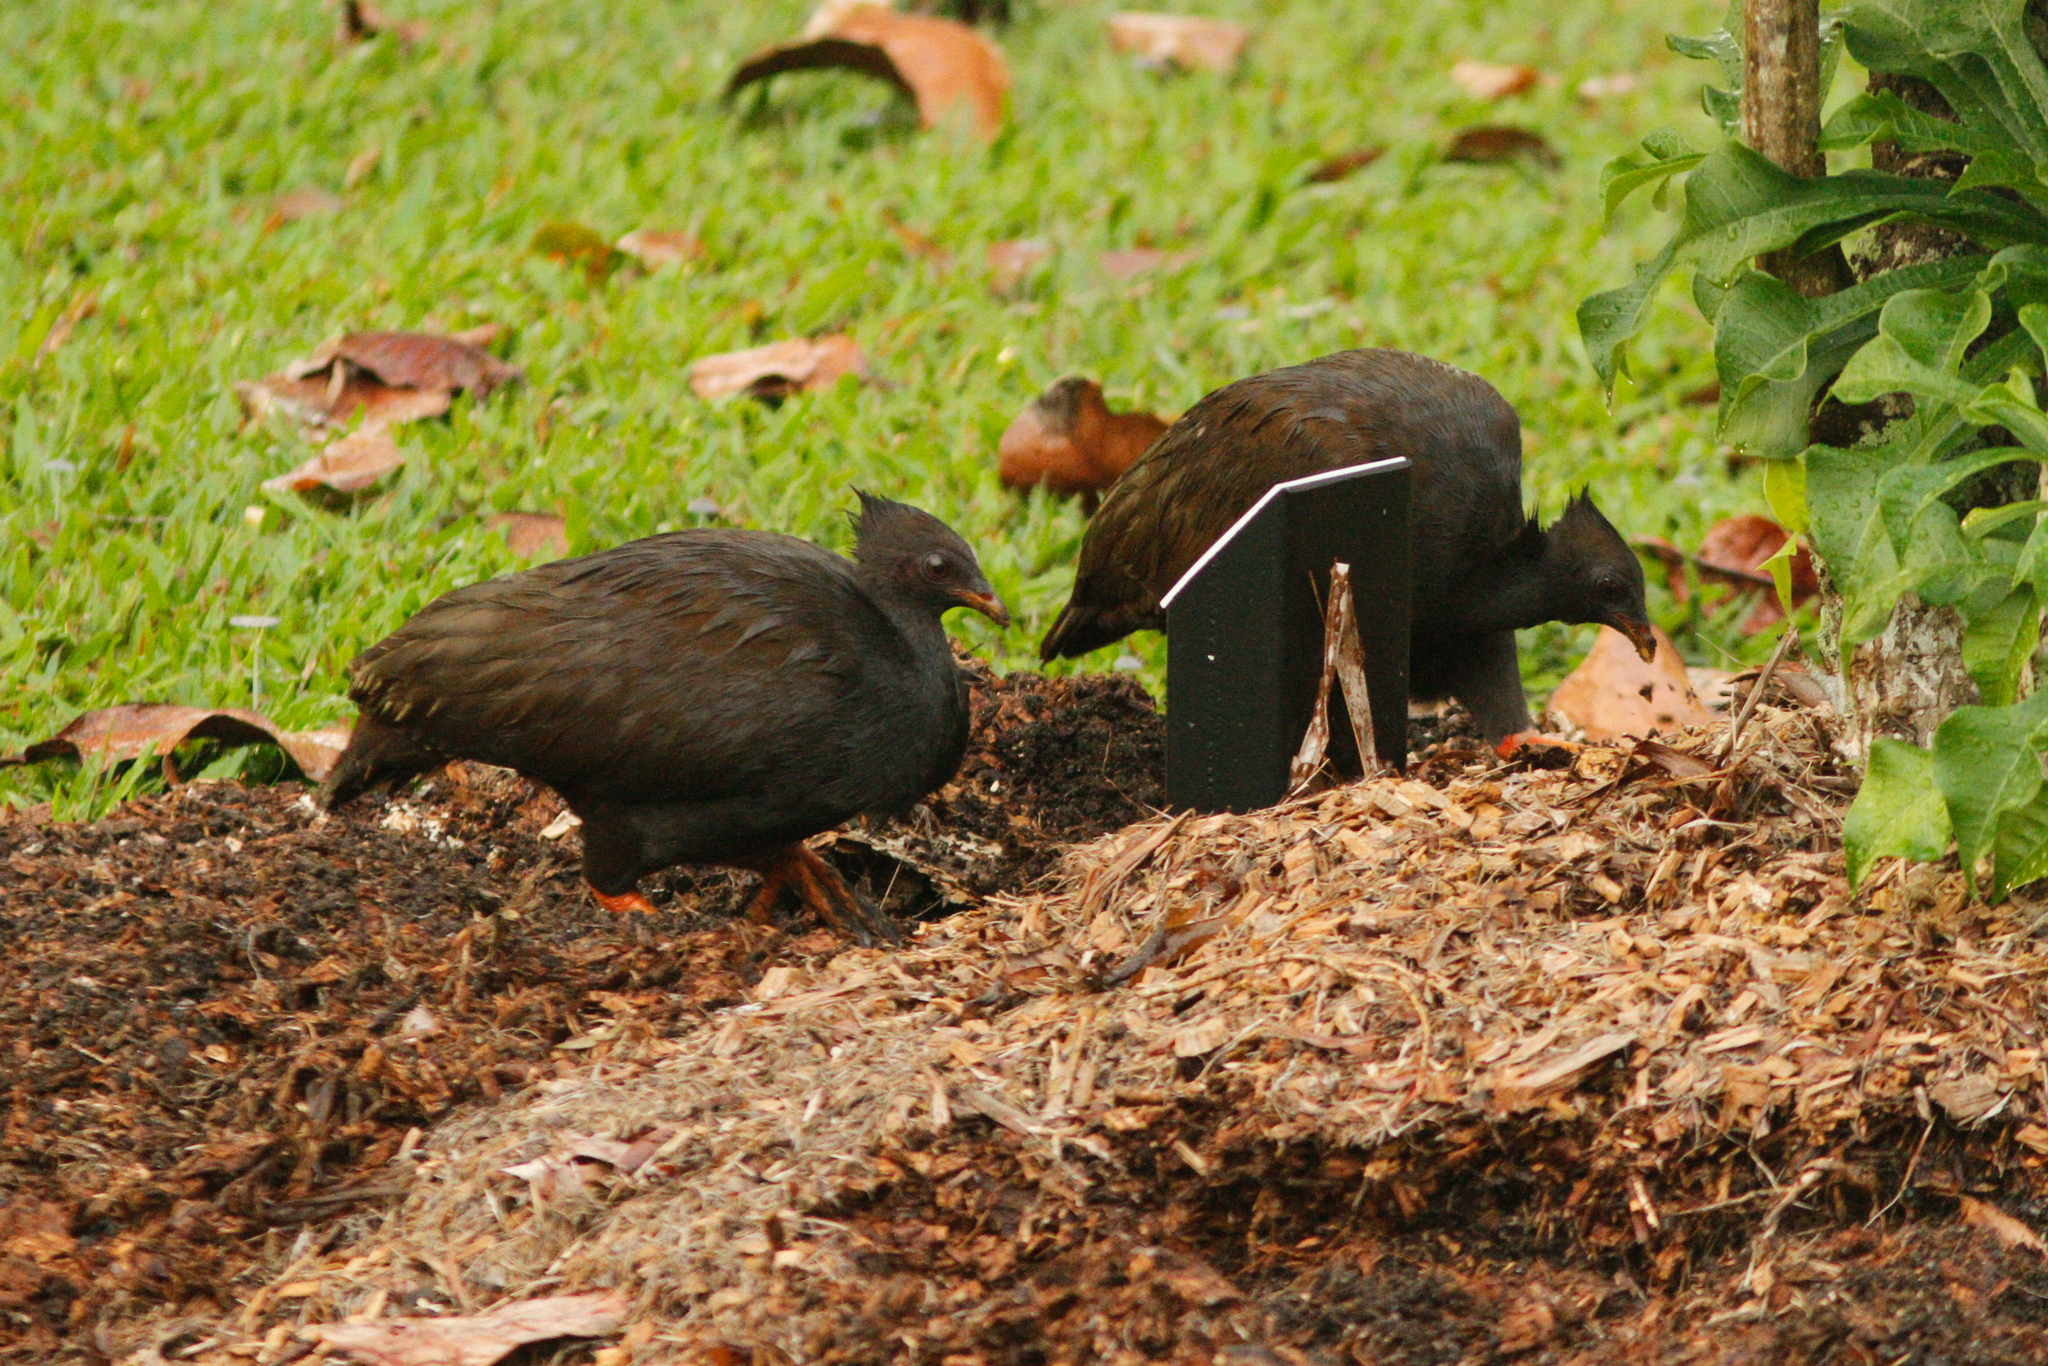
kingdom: Animalia
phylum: Chordata
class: Aves
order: Galliformes
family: Megapodiidae
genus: Megapodius
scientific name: Megapodius reinwardt
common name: Orange-footed scrubfowl
